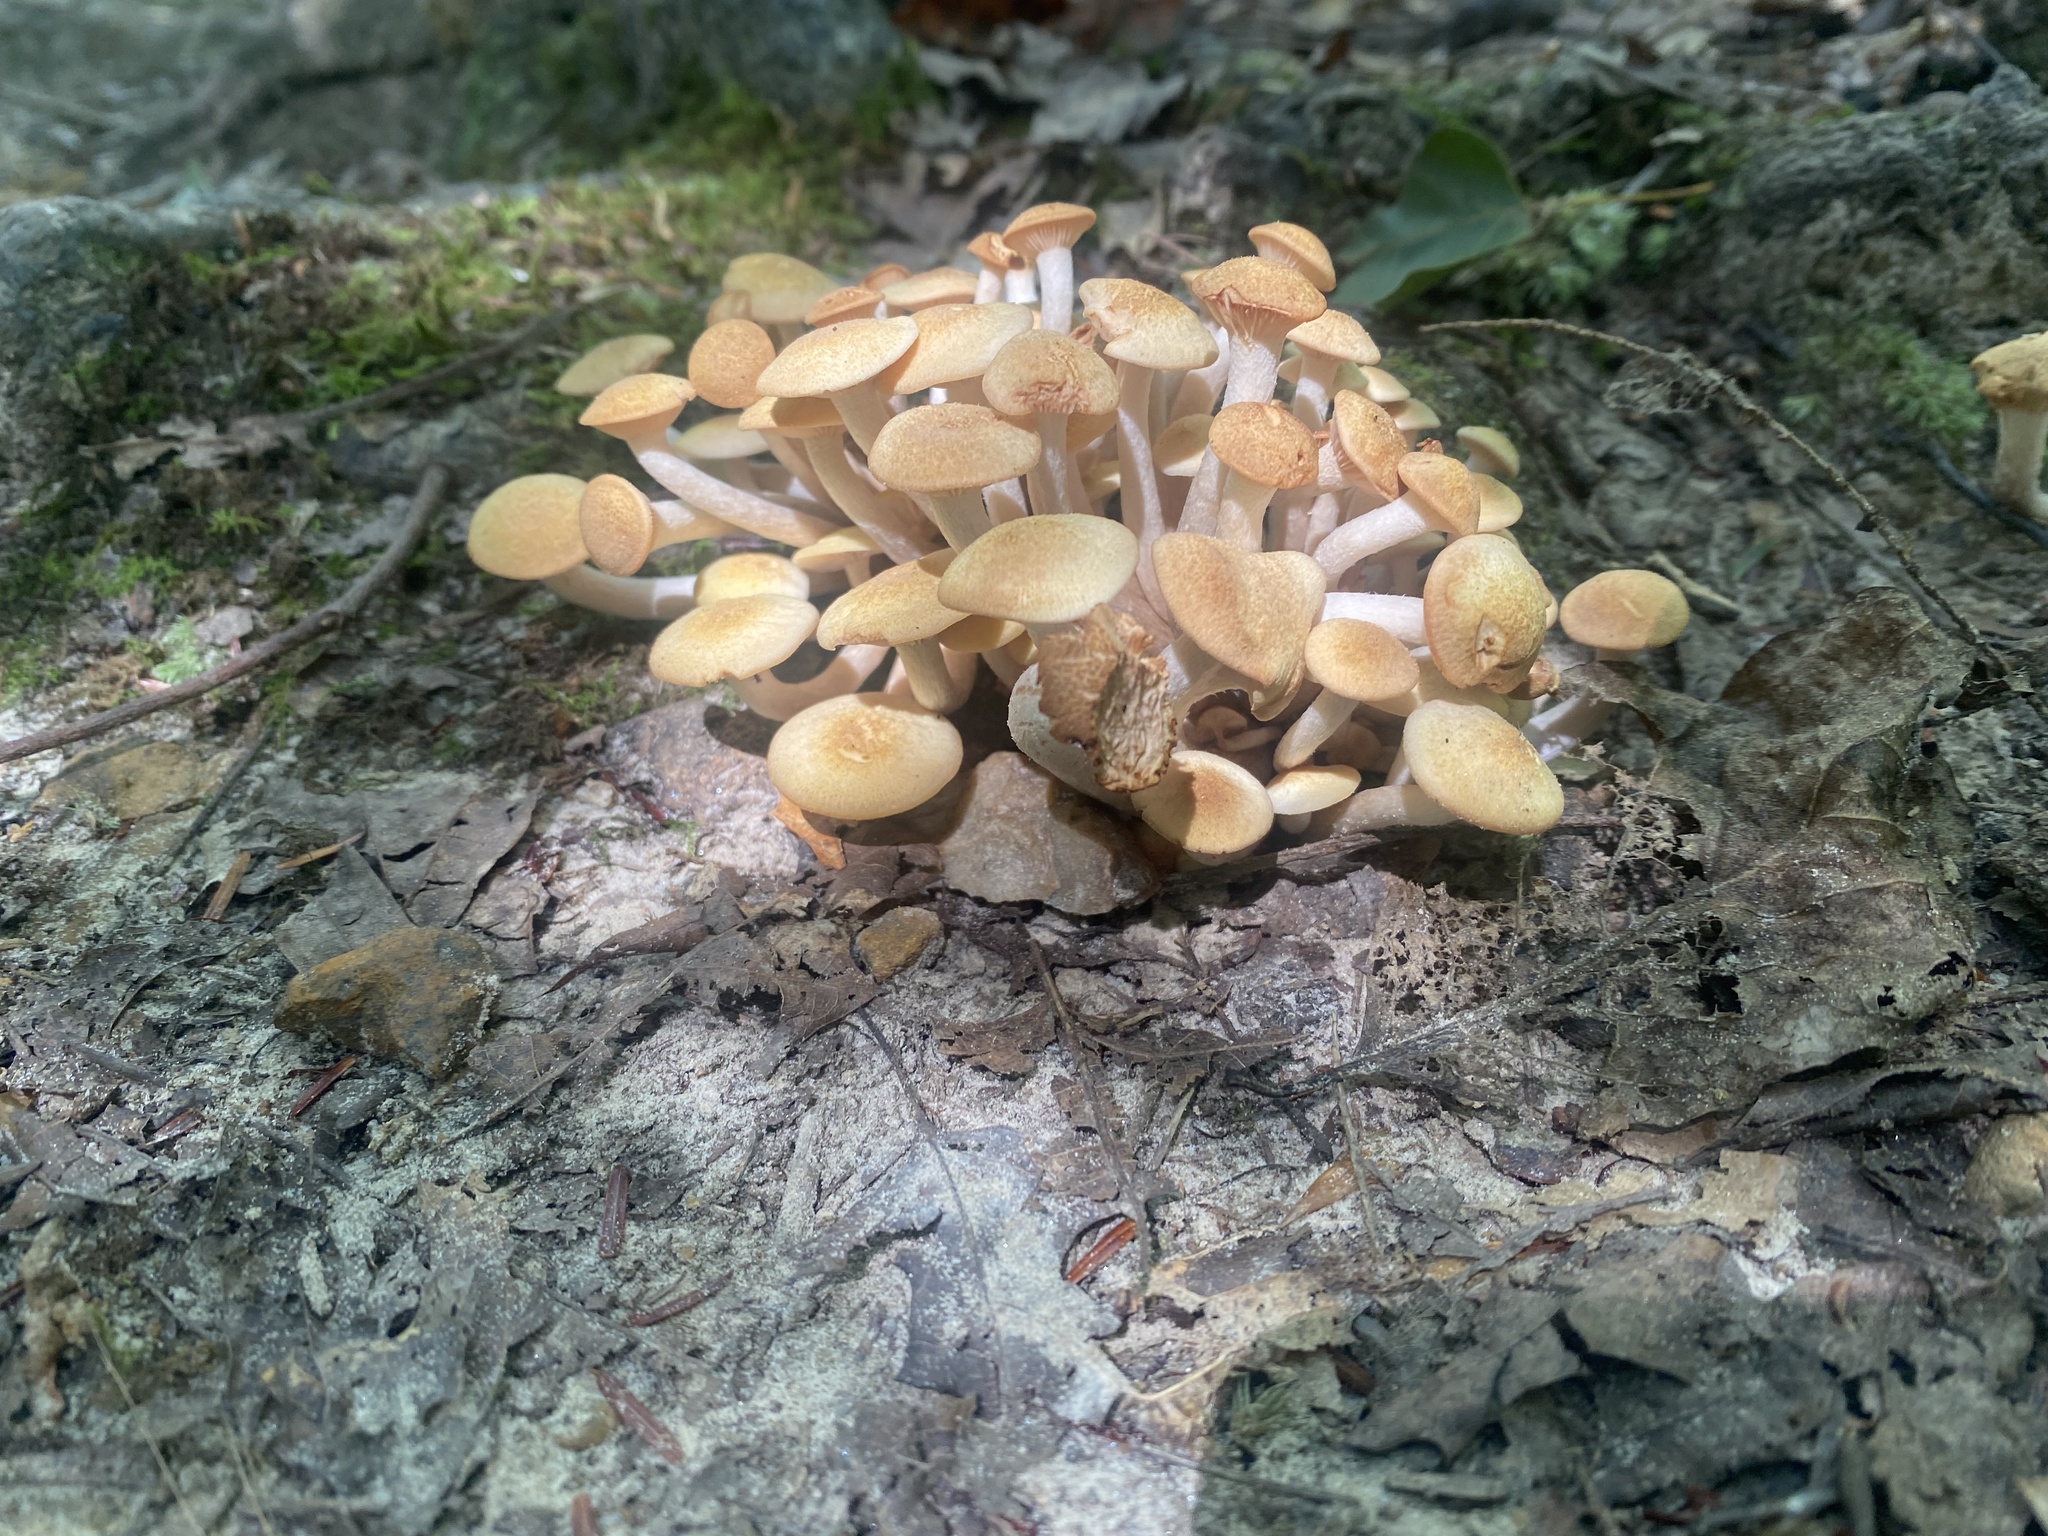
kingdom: Fungi
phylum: Basidiomycota
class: Agaricomycetes
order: Agaricales
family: Physalacriaceae
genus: Desarmillaria
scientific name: Desarmillaria caespitosa
